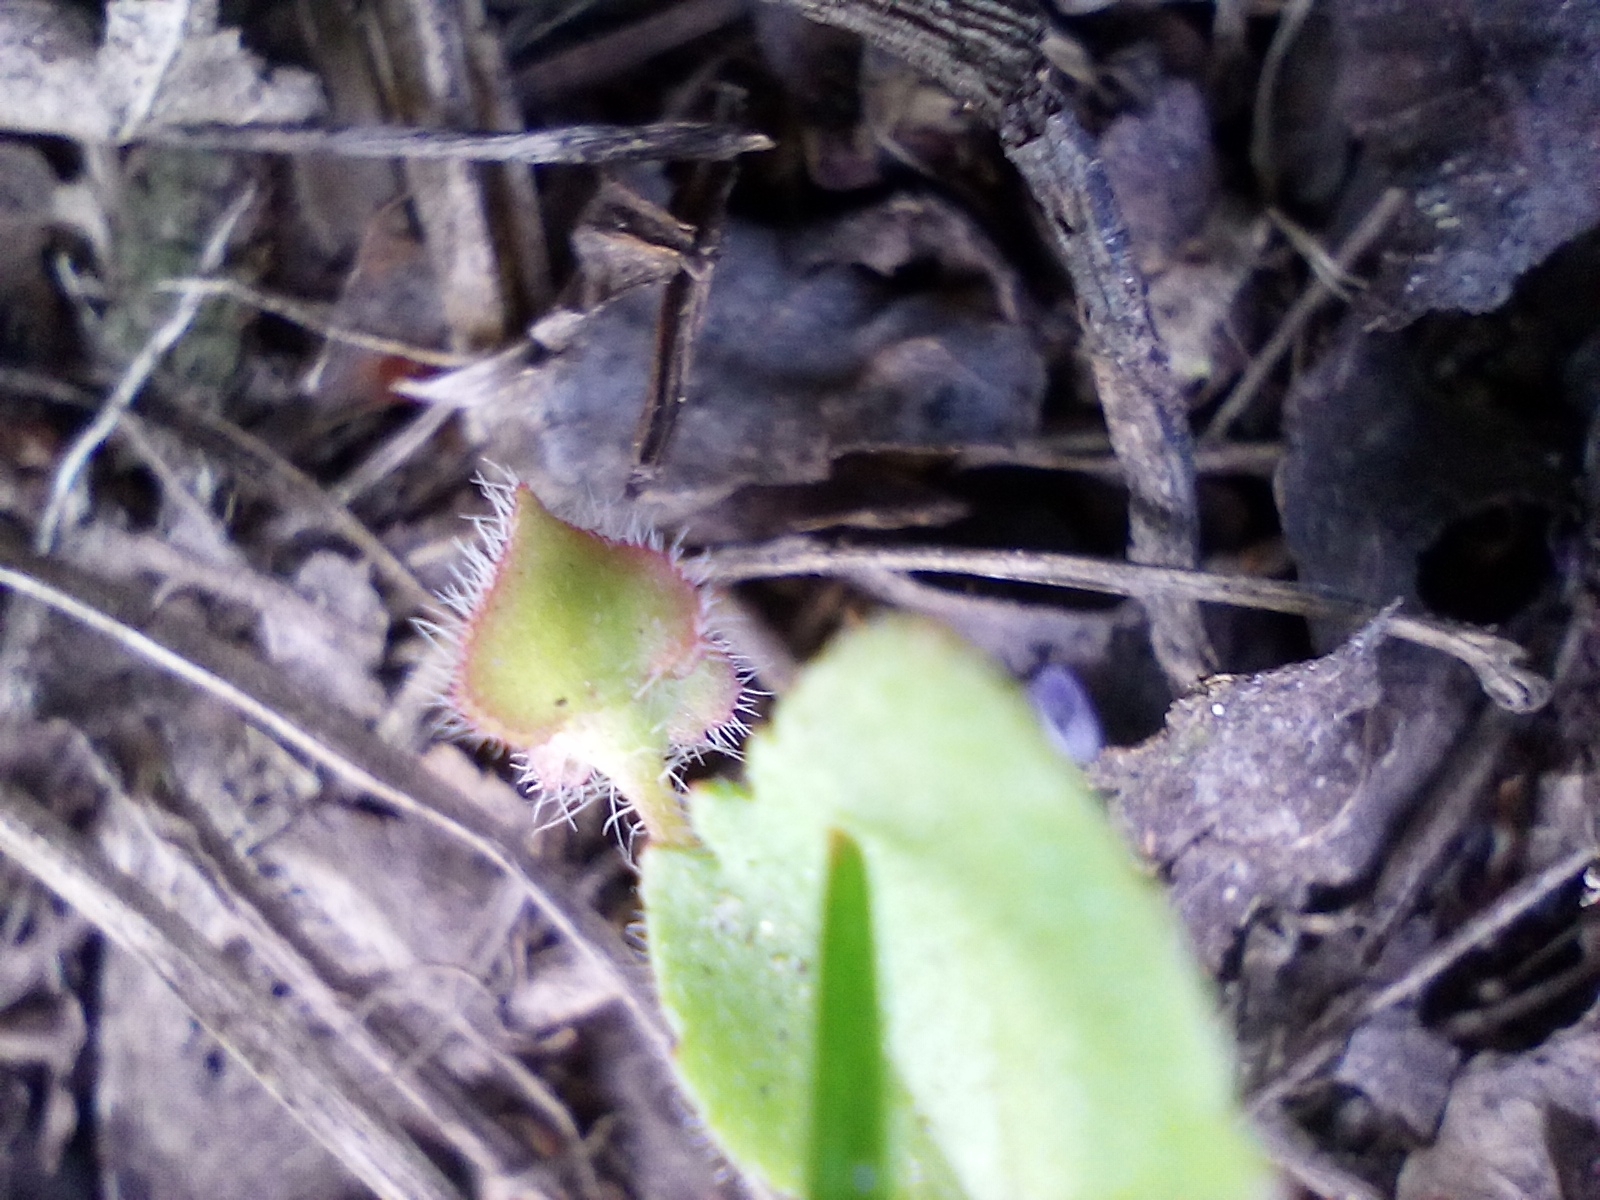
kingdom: Plantae
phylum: Tracheophyta
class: Magnoliopsida
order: Lamiales
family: Plantaginaceae
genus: Veronica
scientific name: Veronica sublobata
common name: False ivy-leaved speedwell
